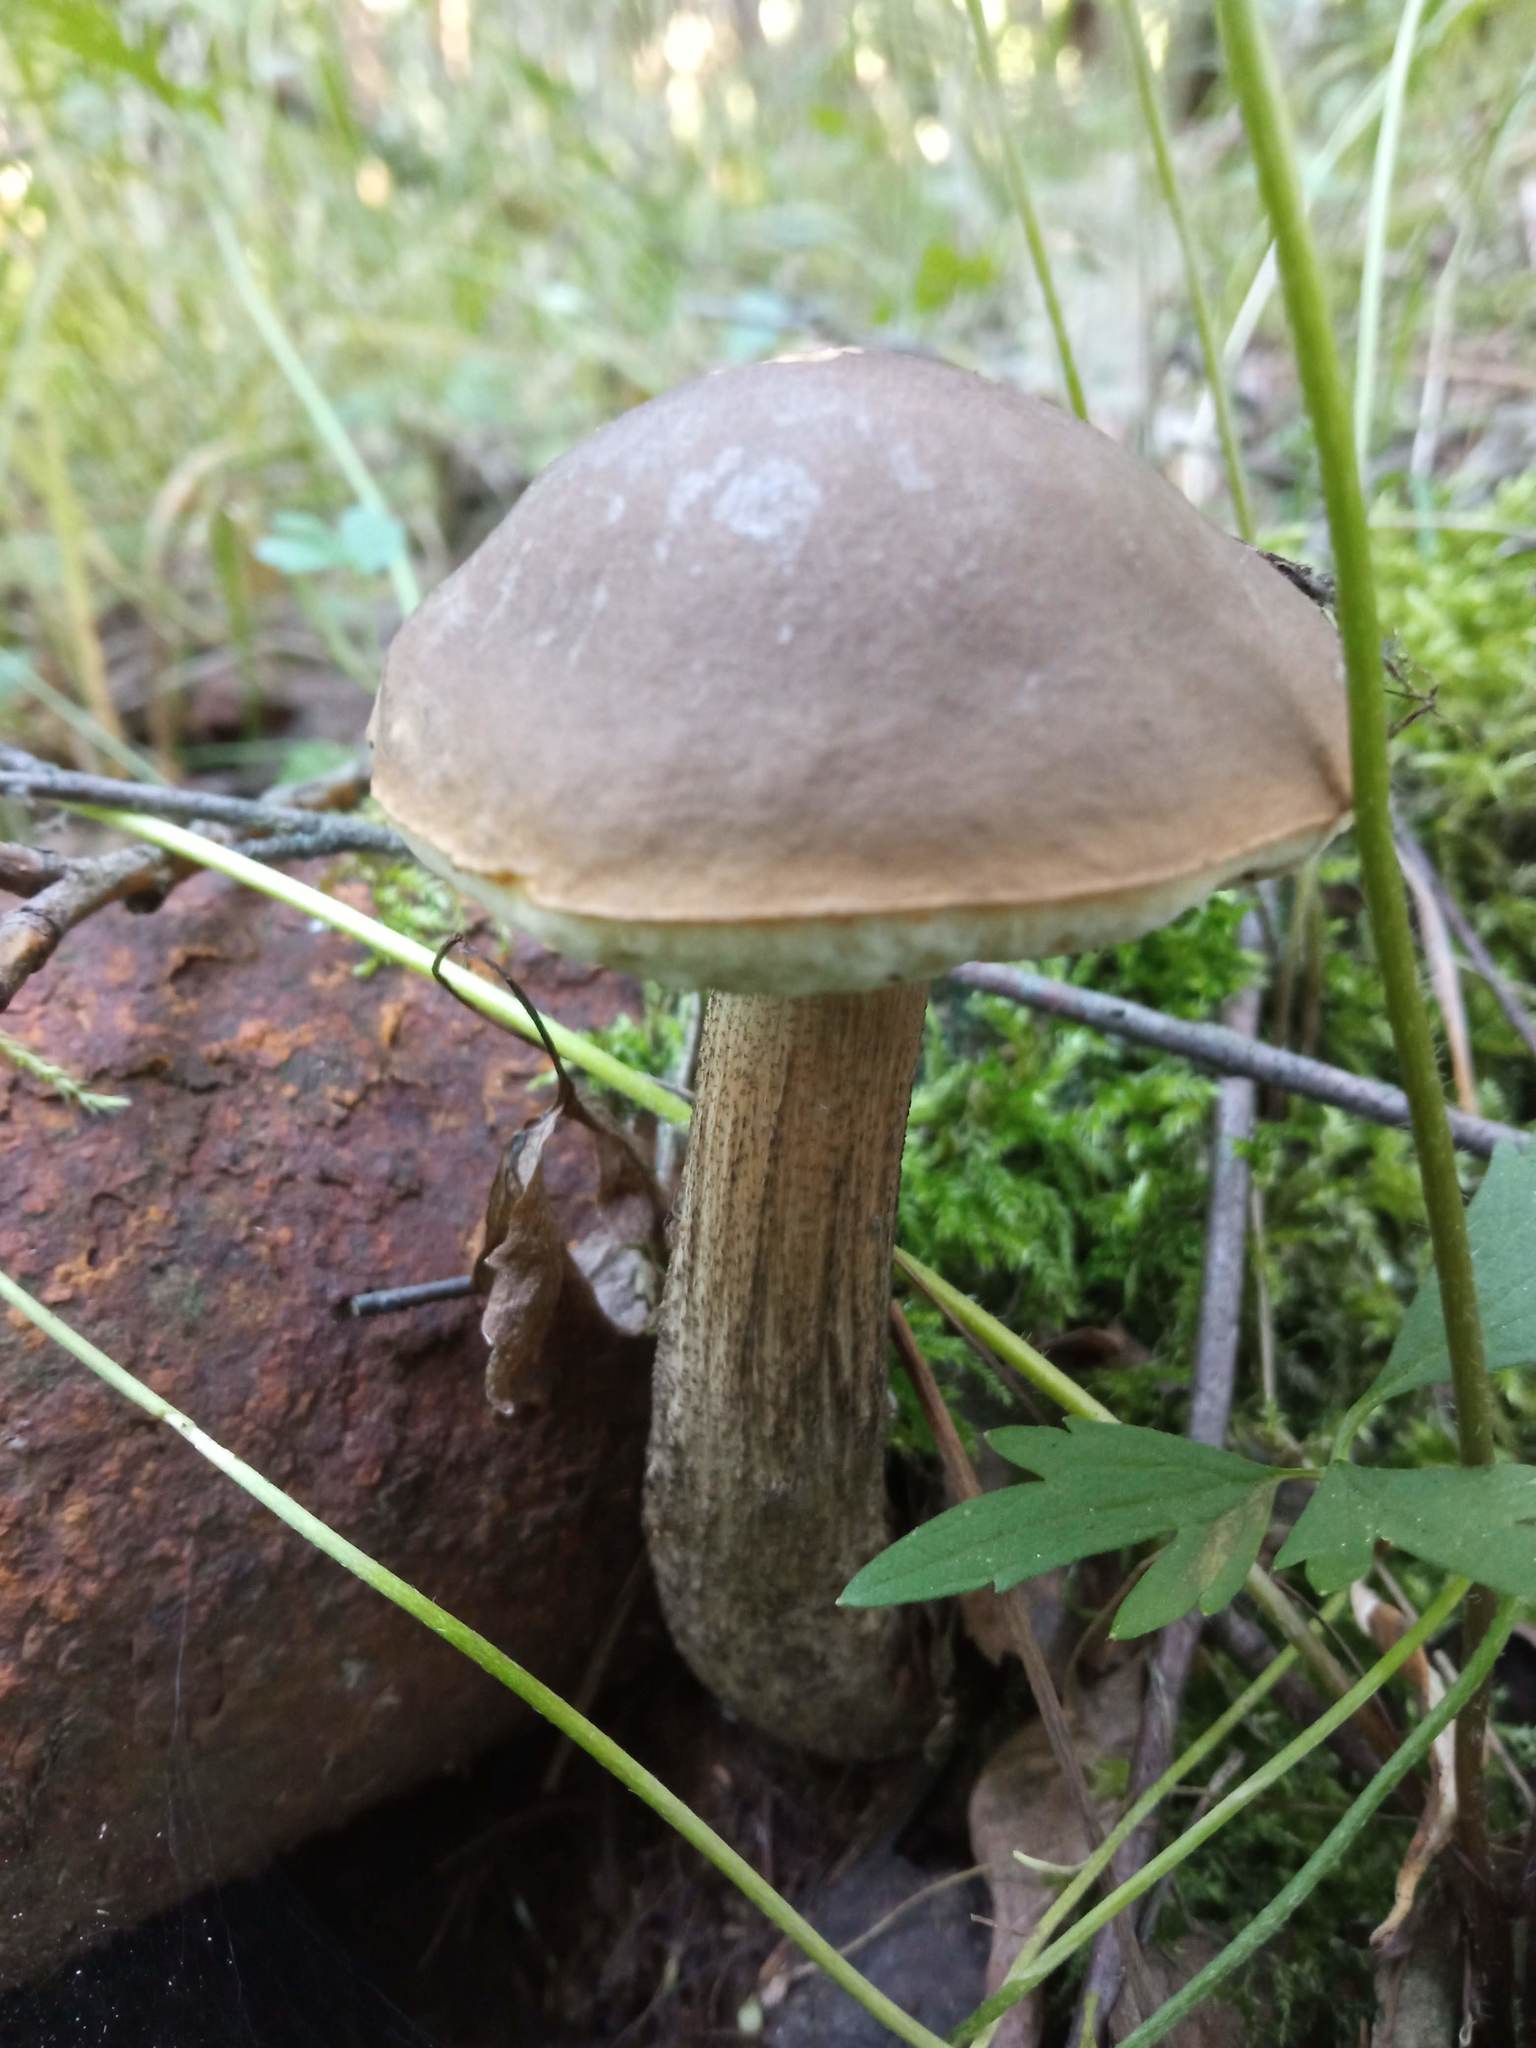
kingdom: Fungi
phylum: Basidiomycota
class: Agaricomycetes
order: Boletales
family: Boletaceae
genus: Leccinum
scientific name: Leccinum scabrum
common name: Blushing bolete
